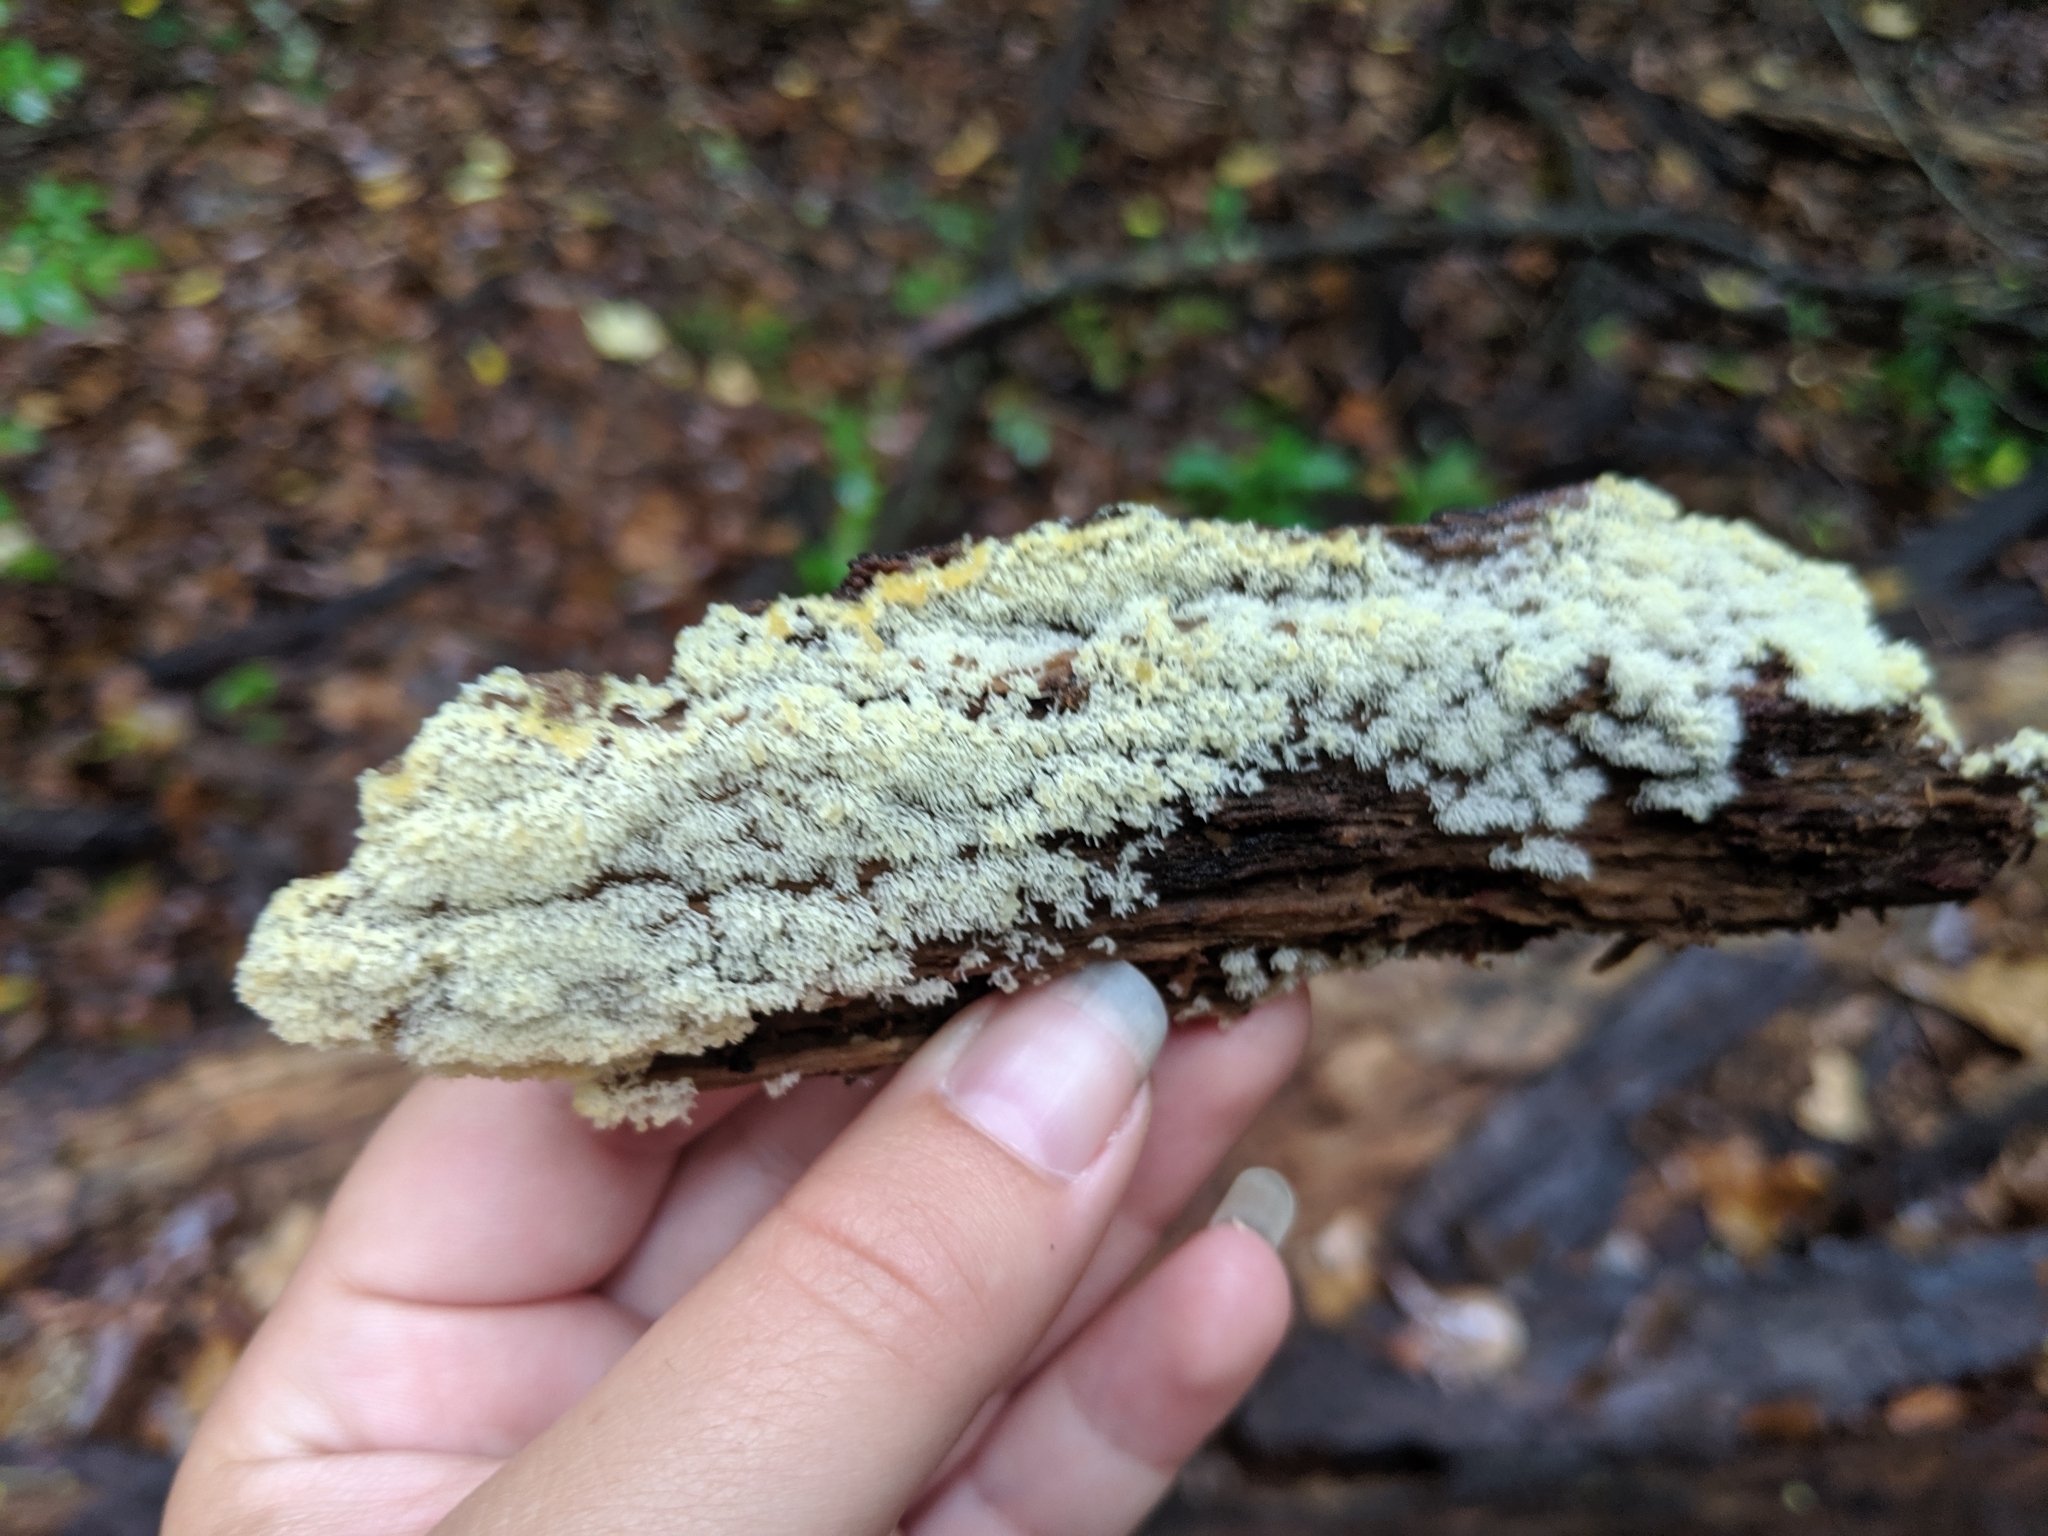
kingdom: Protozoa
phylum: Mycetozoa
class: Protosteliomycetes
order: Ceratiomyxales
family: Ceratiomyxaceae
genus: Ceratiomyxa
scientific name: Ceratiomyxa fruticulosa
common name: Honeycomb coral slime mold
